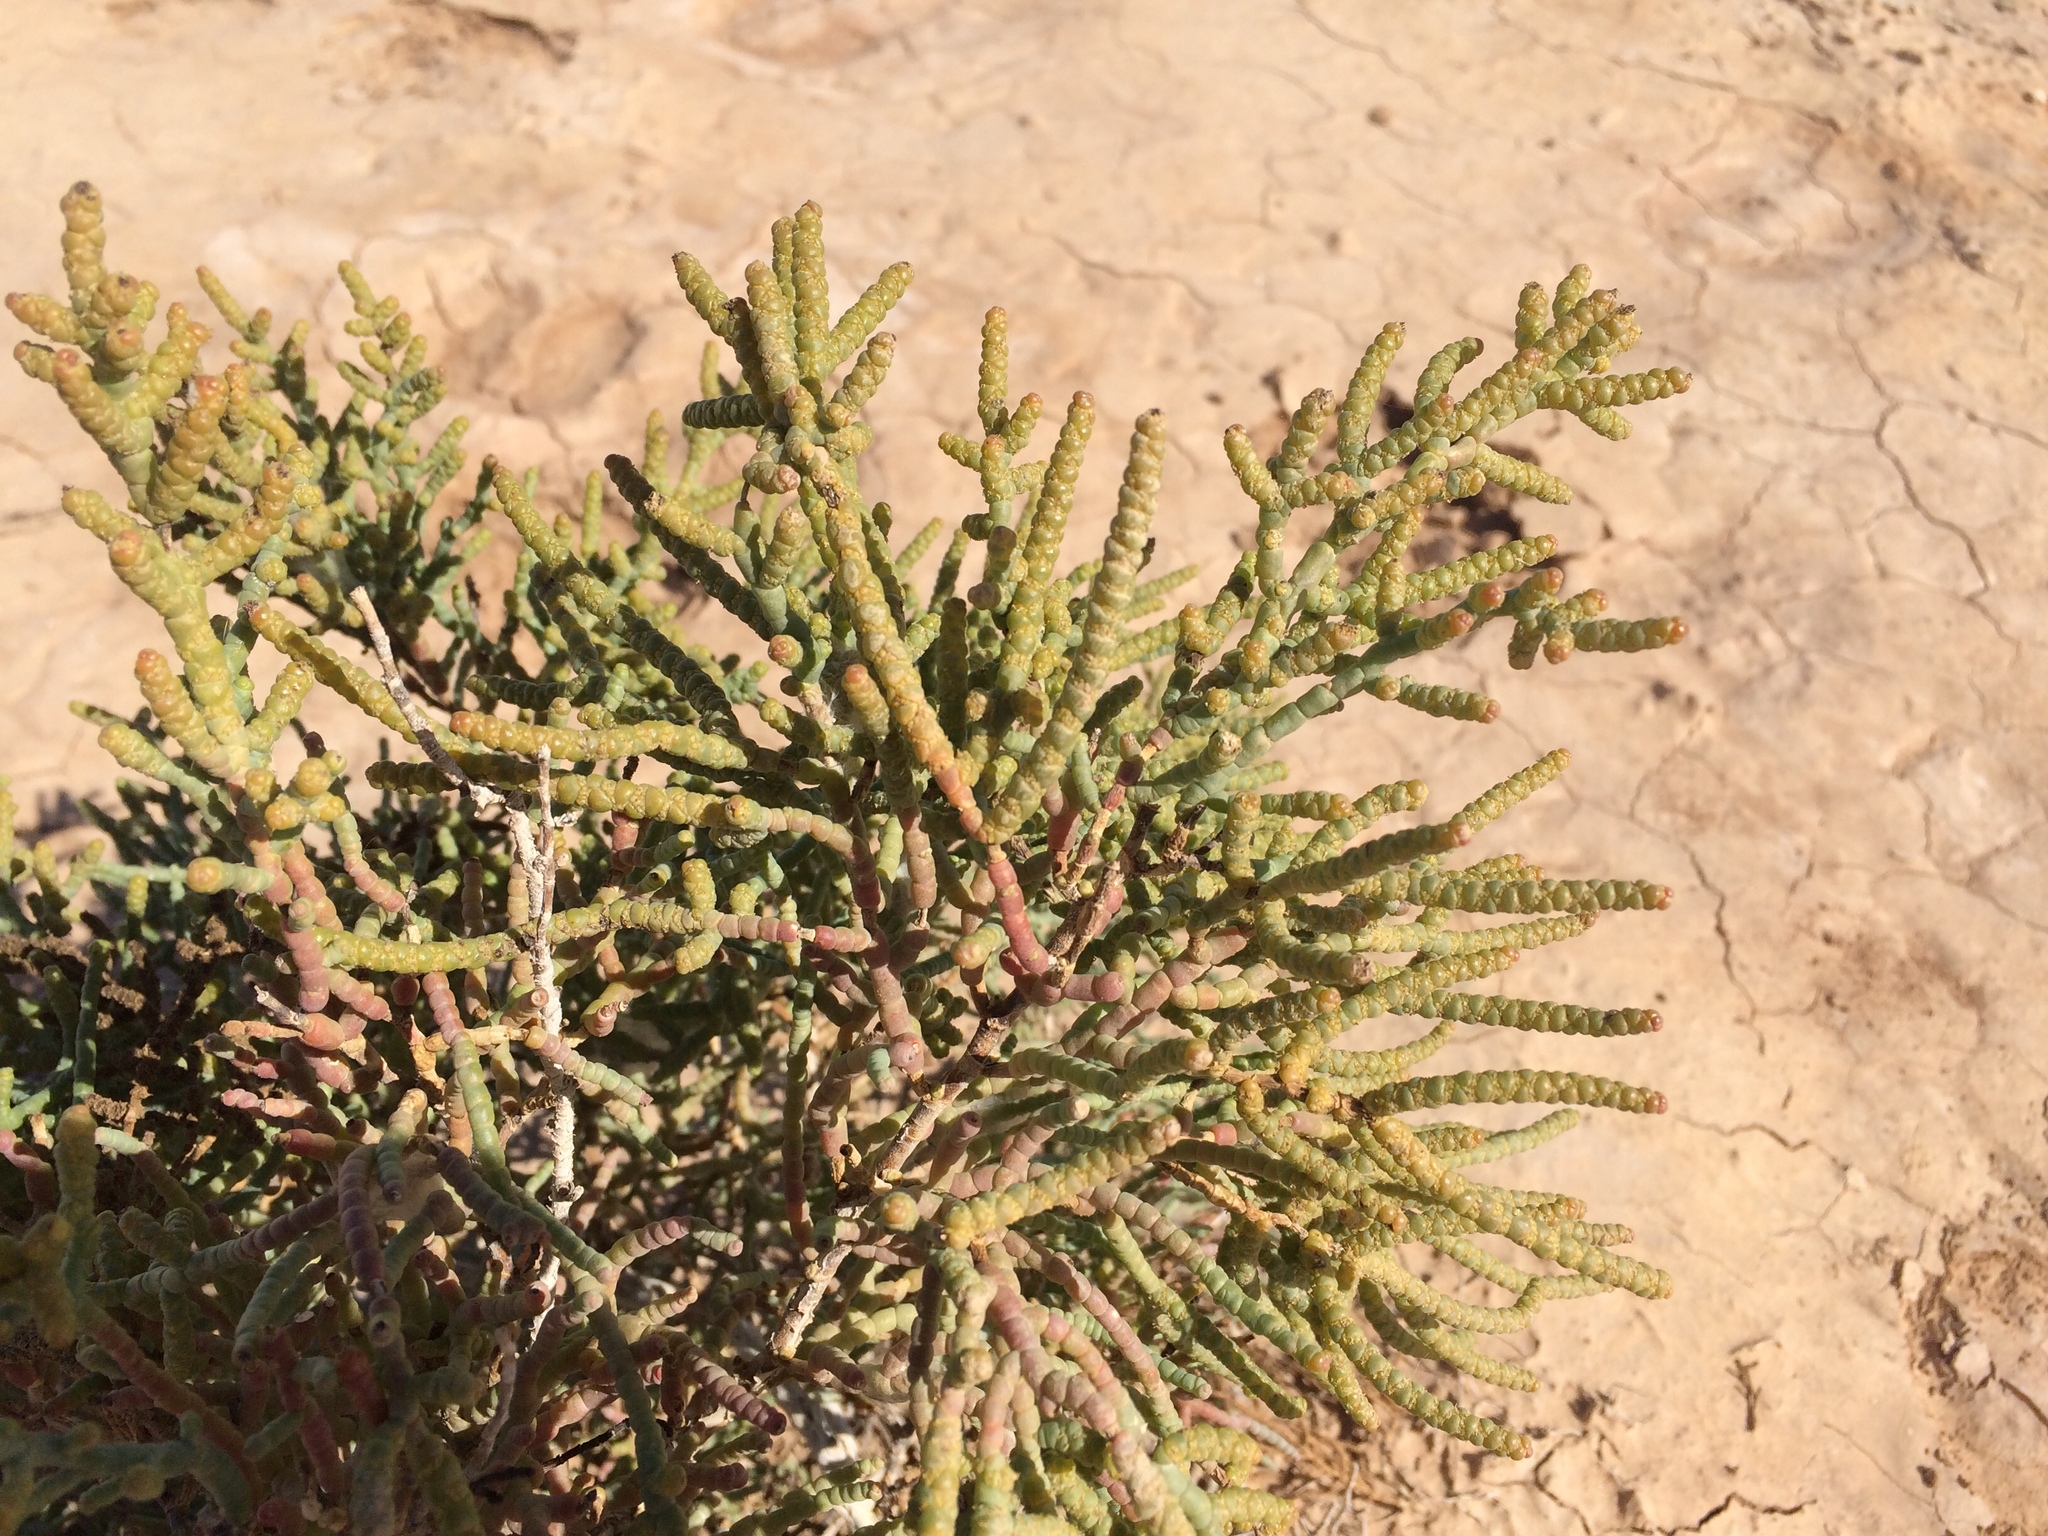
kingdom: Plantae
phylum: Tracheophyta
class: Magnoliopsida
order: Caryophyllales
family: Amaranthaceae
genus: Allenrolfea
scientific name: Allenrolfea occidentalis
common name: Iodine-bush
